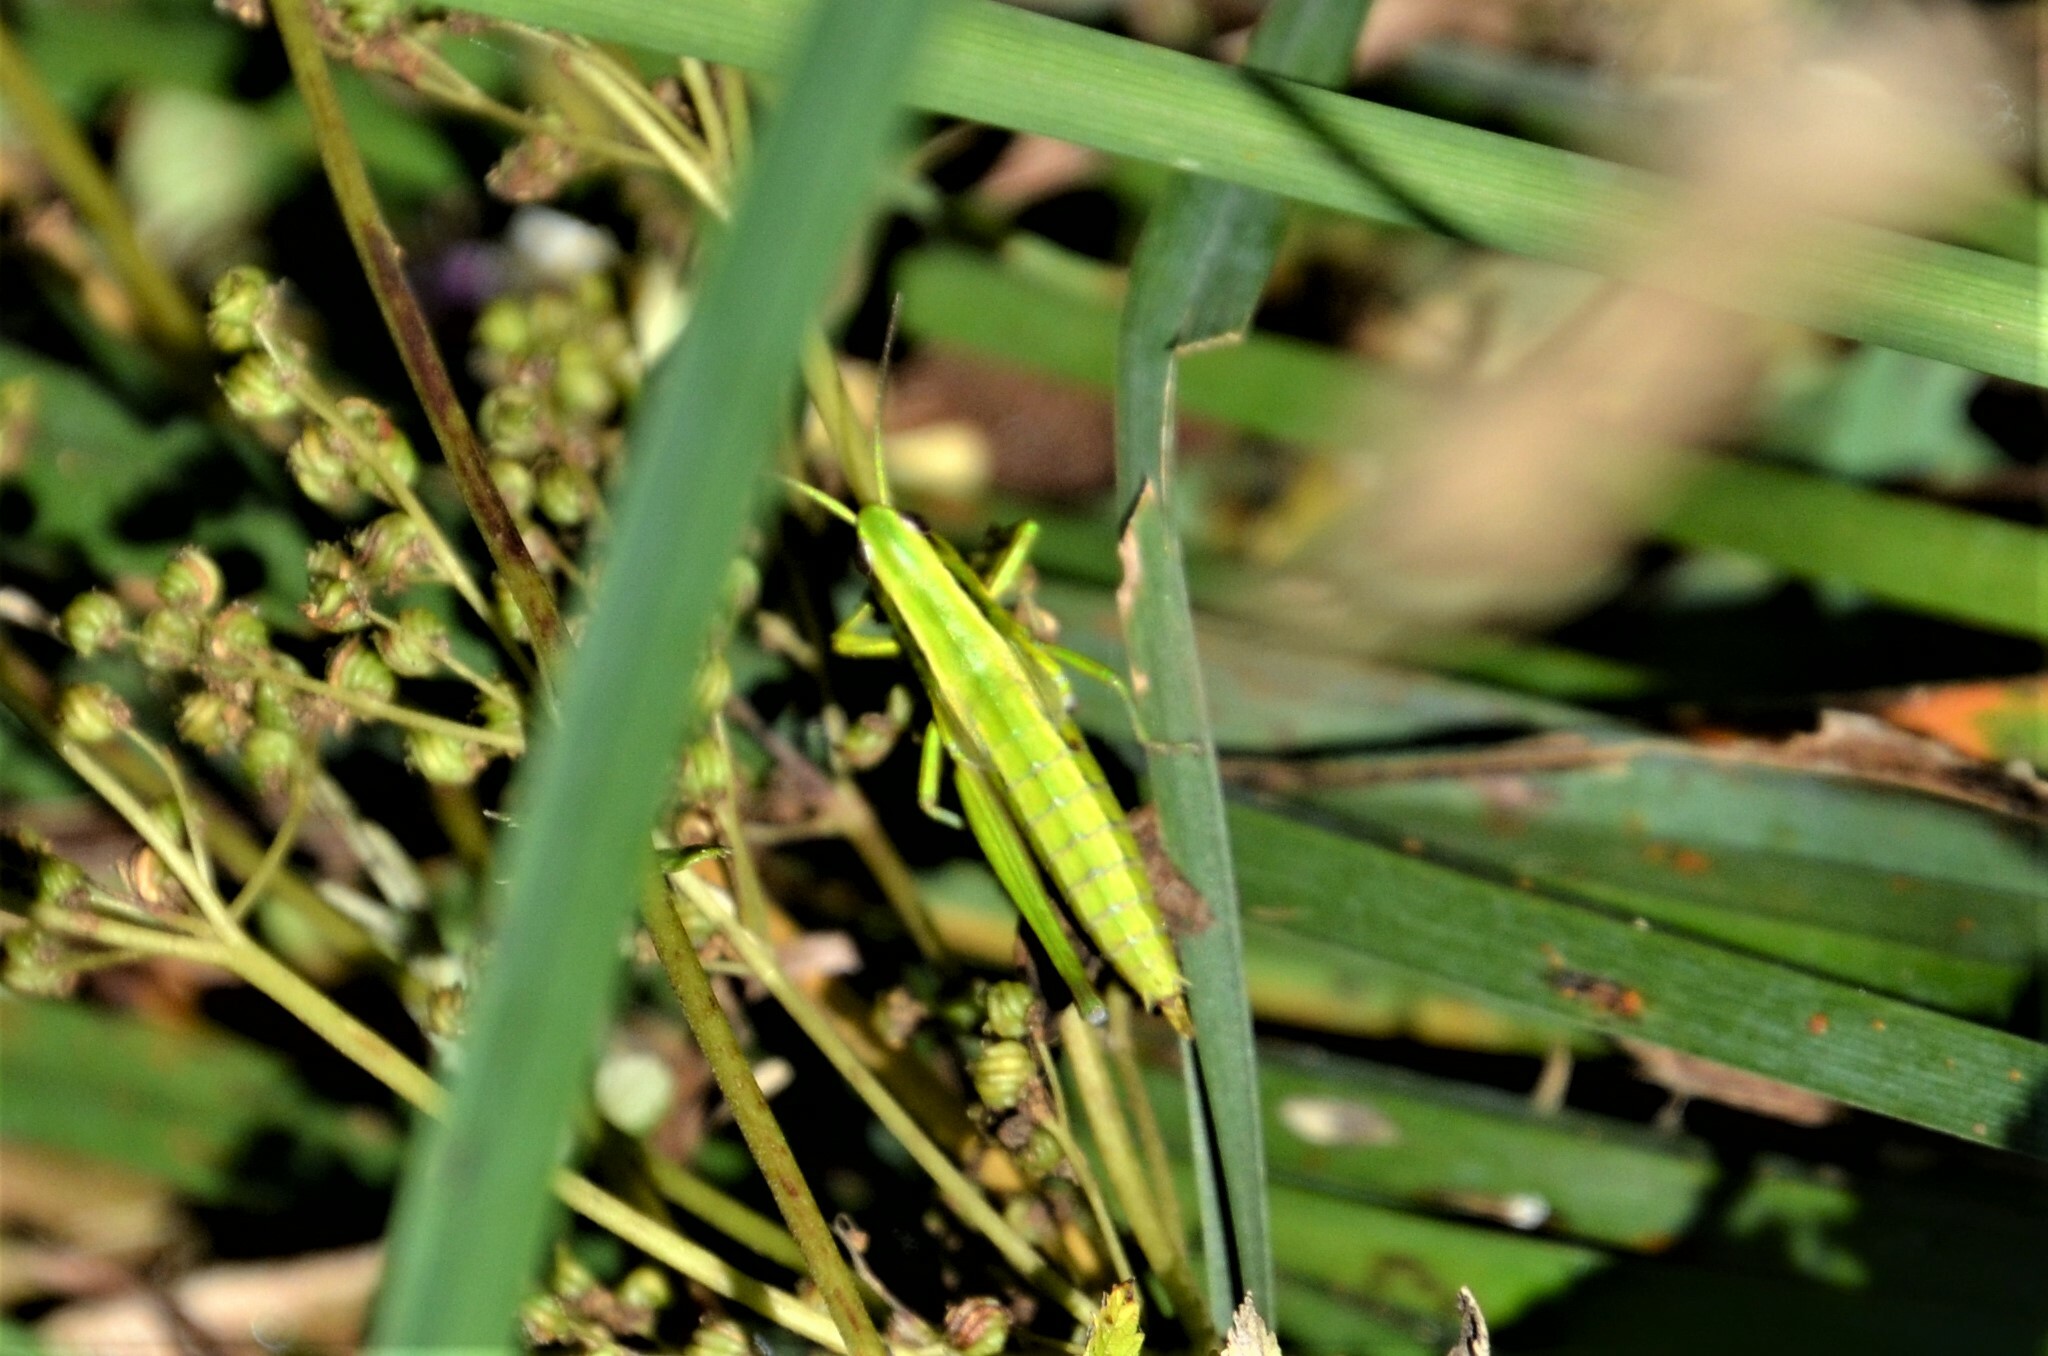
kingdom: Animalia
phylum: Arthropoda
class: Insecta
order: Orthoptera
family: Acrididae
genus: Euthystira
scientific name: Euthystira brachyptera
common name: Small gold grasshopper
